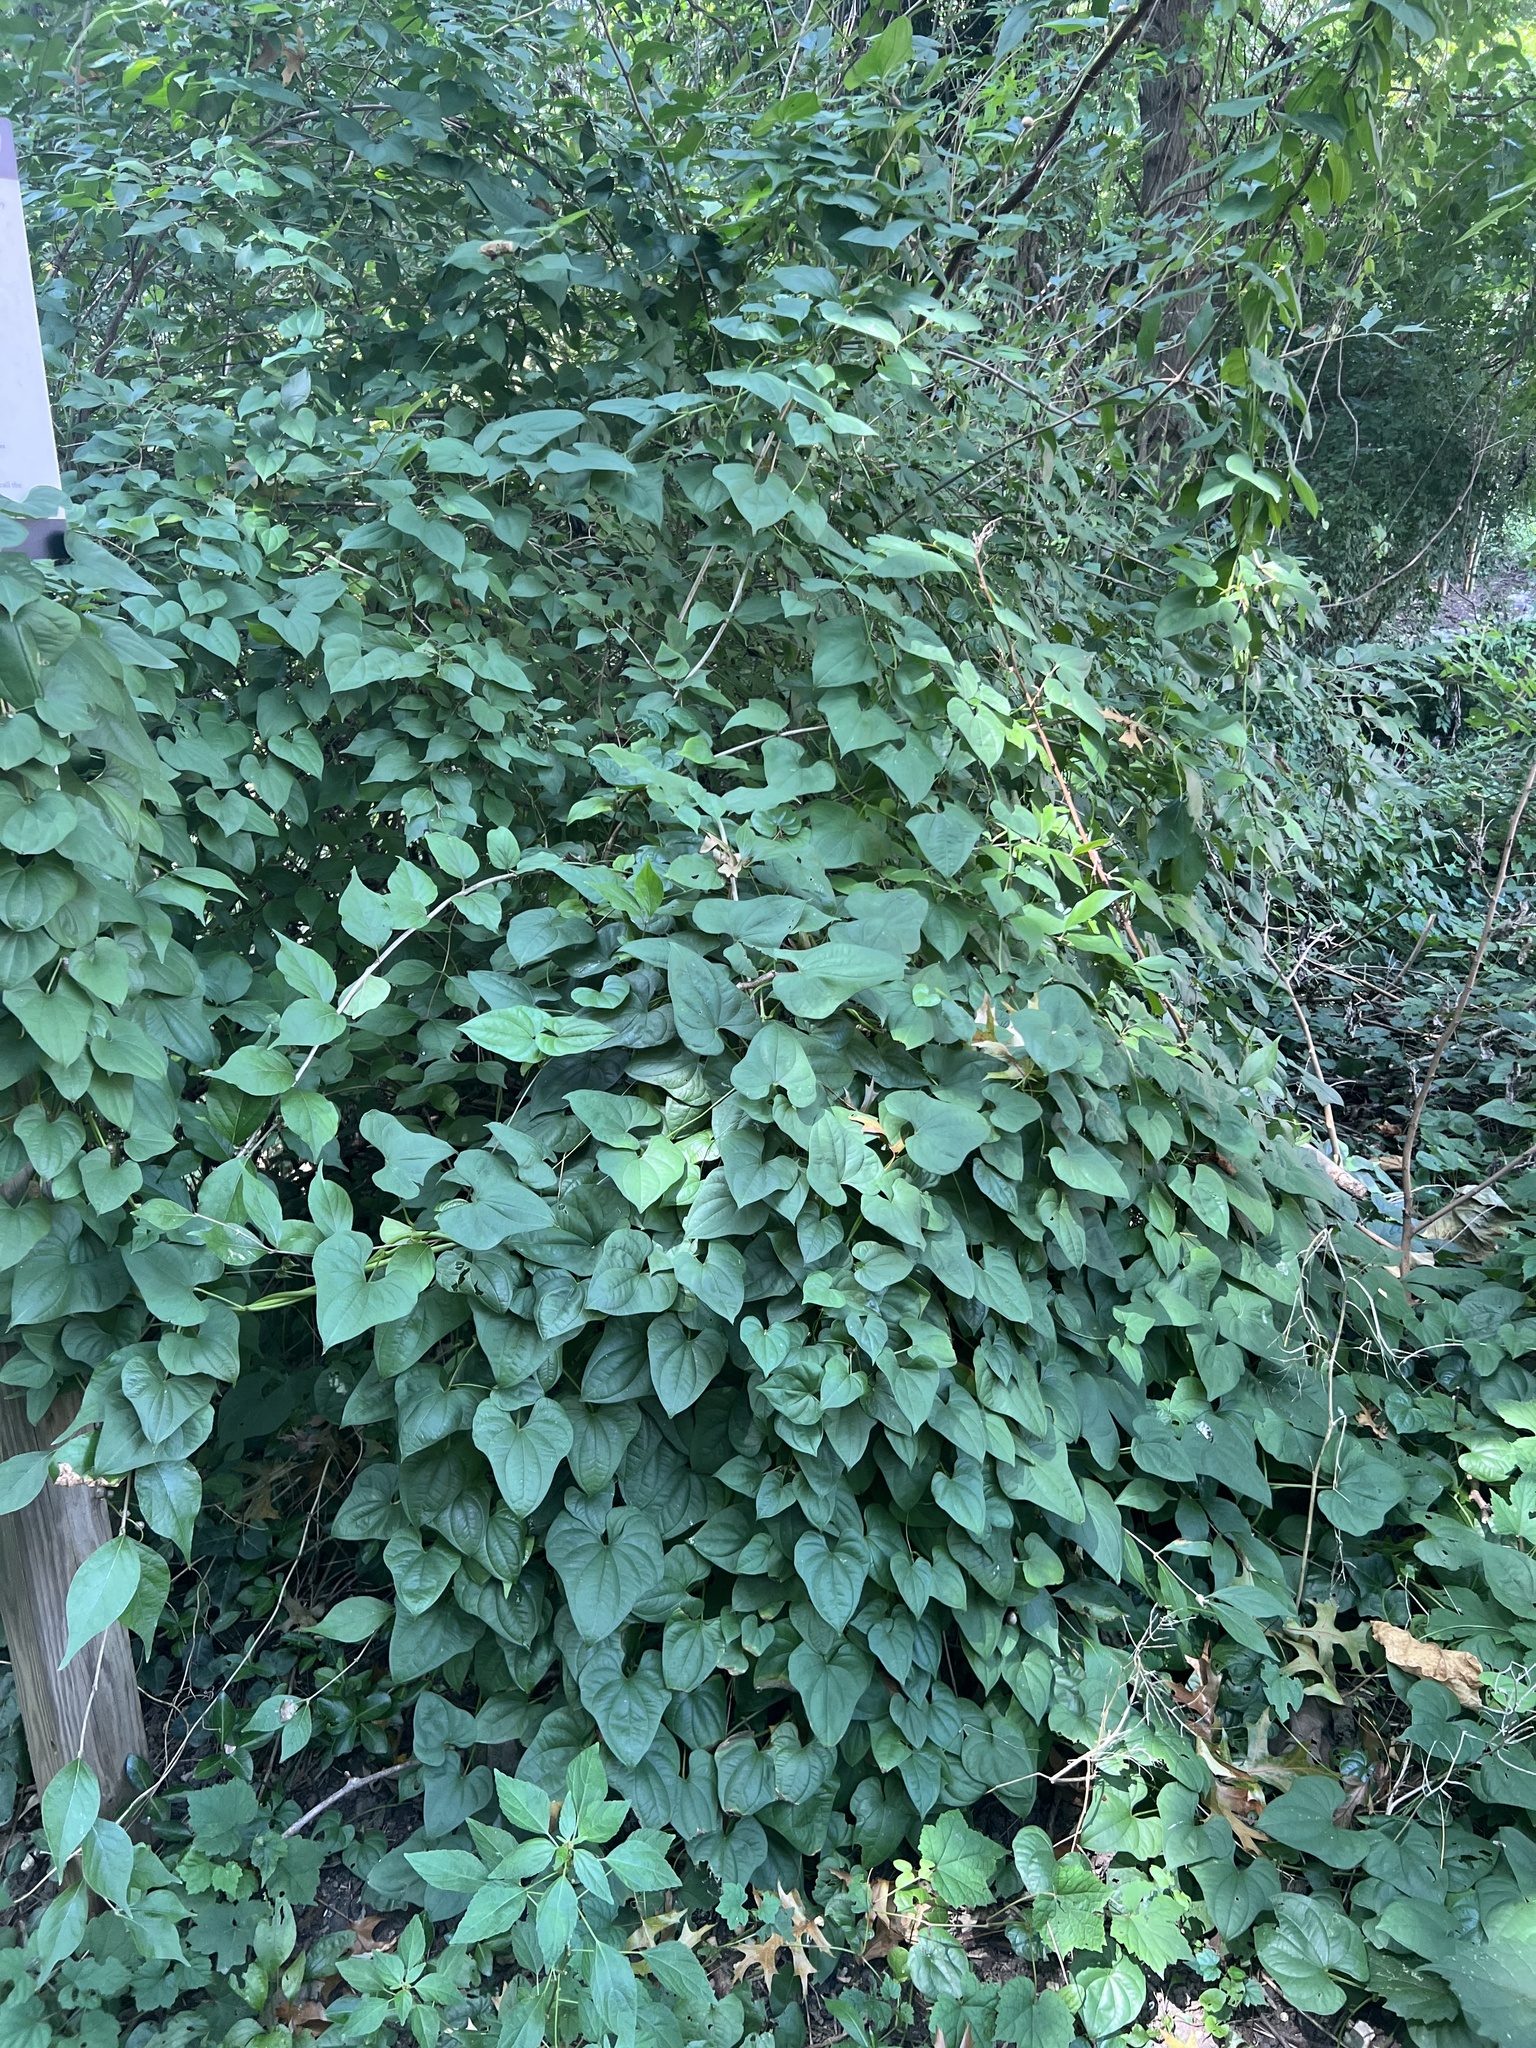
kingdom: Plantae
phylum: Tracheophyta
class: Liliopsida
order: Dioscoreales
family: Dioscoreaceae
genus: Dioscorea
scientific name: Dioscorea polystachya
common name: Chinese yam
